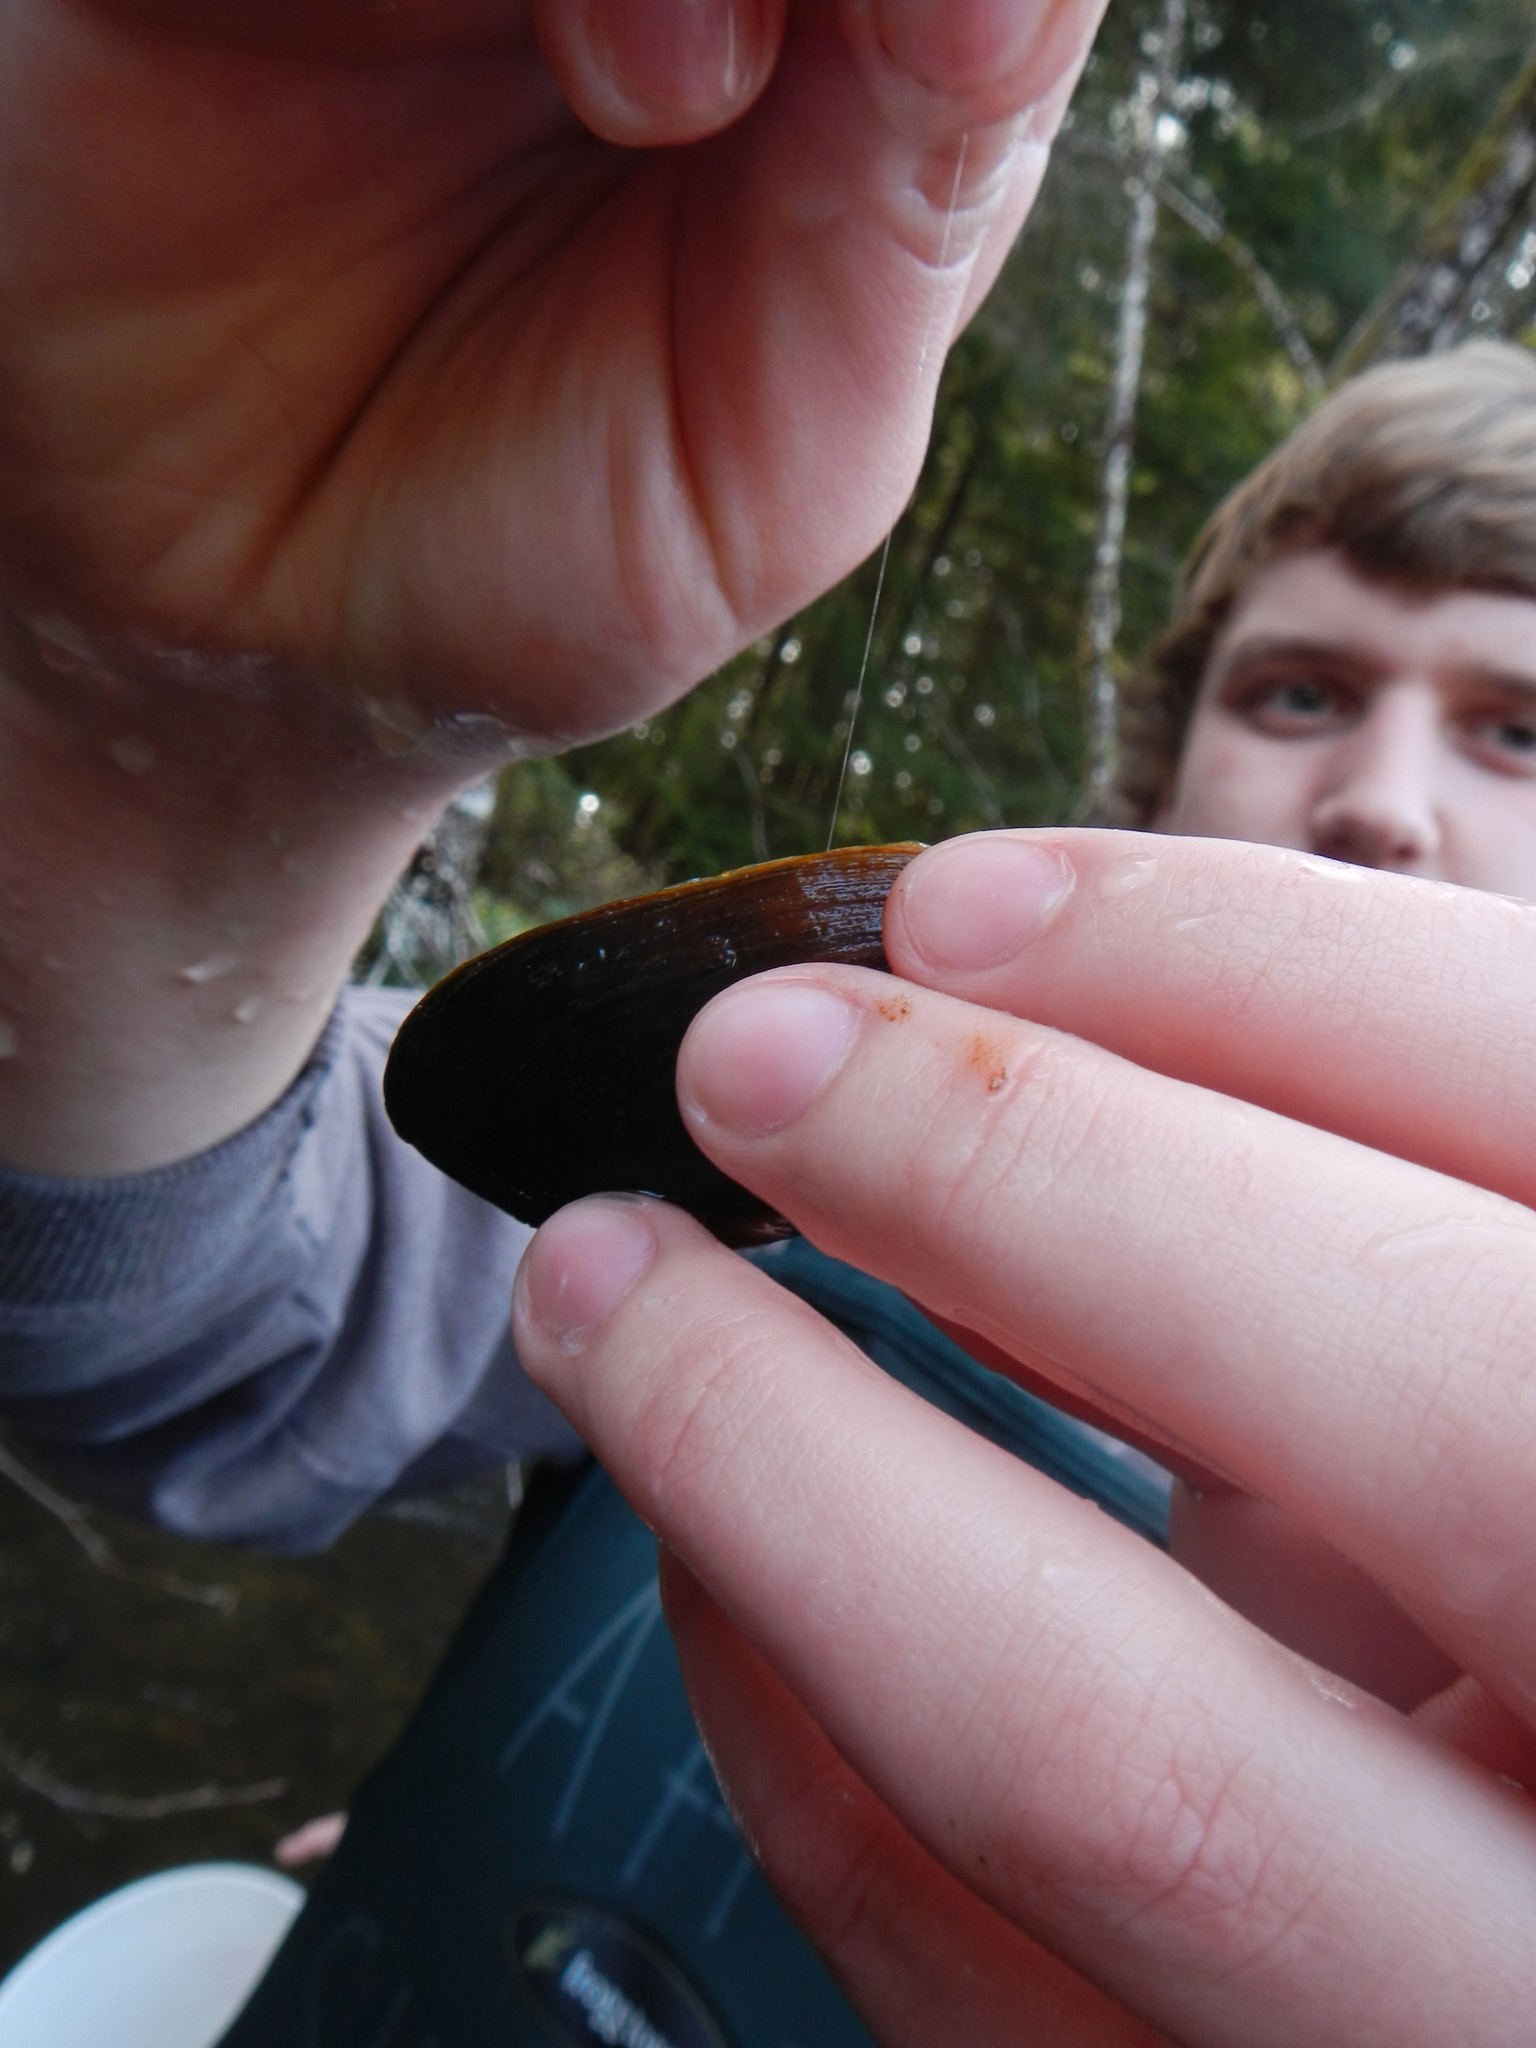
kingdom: Animalia
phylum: Mollusca
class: Bivalvia
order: Unionida
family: Margaritiferidae
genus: Margaritifera
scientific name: Margaritifera falcata
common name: Western pearlshell
